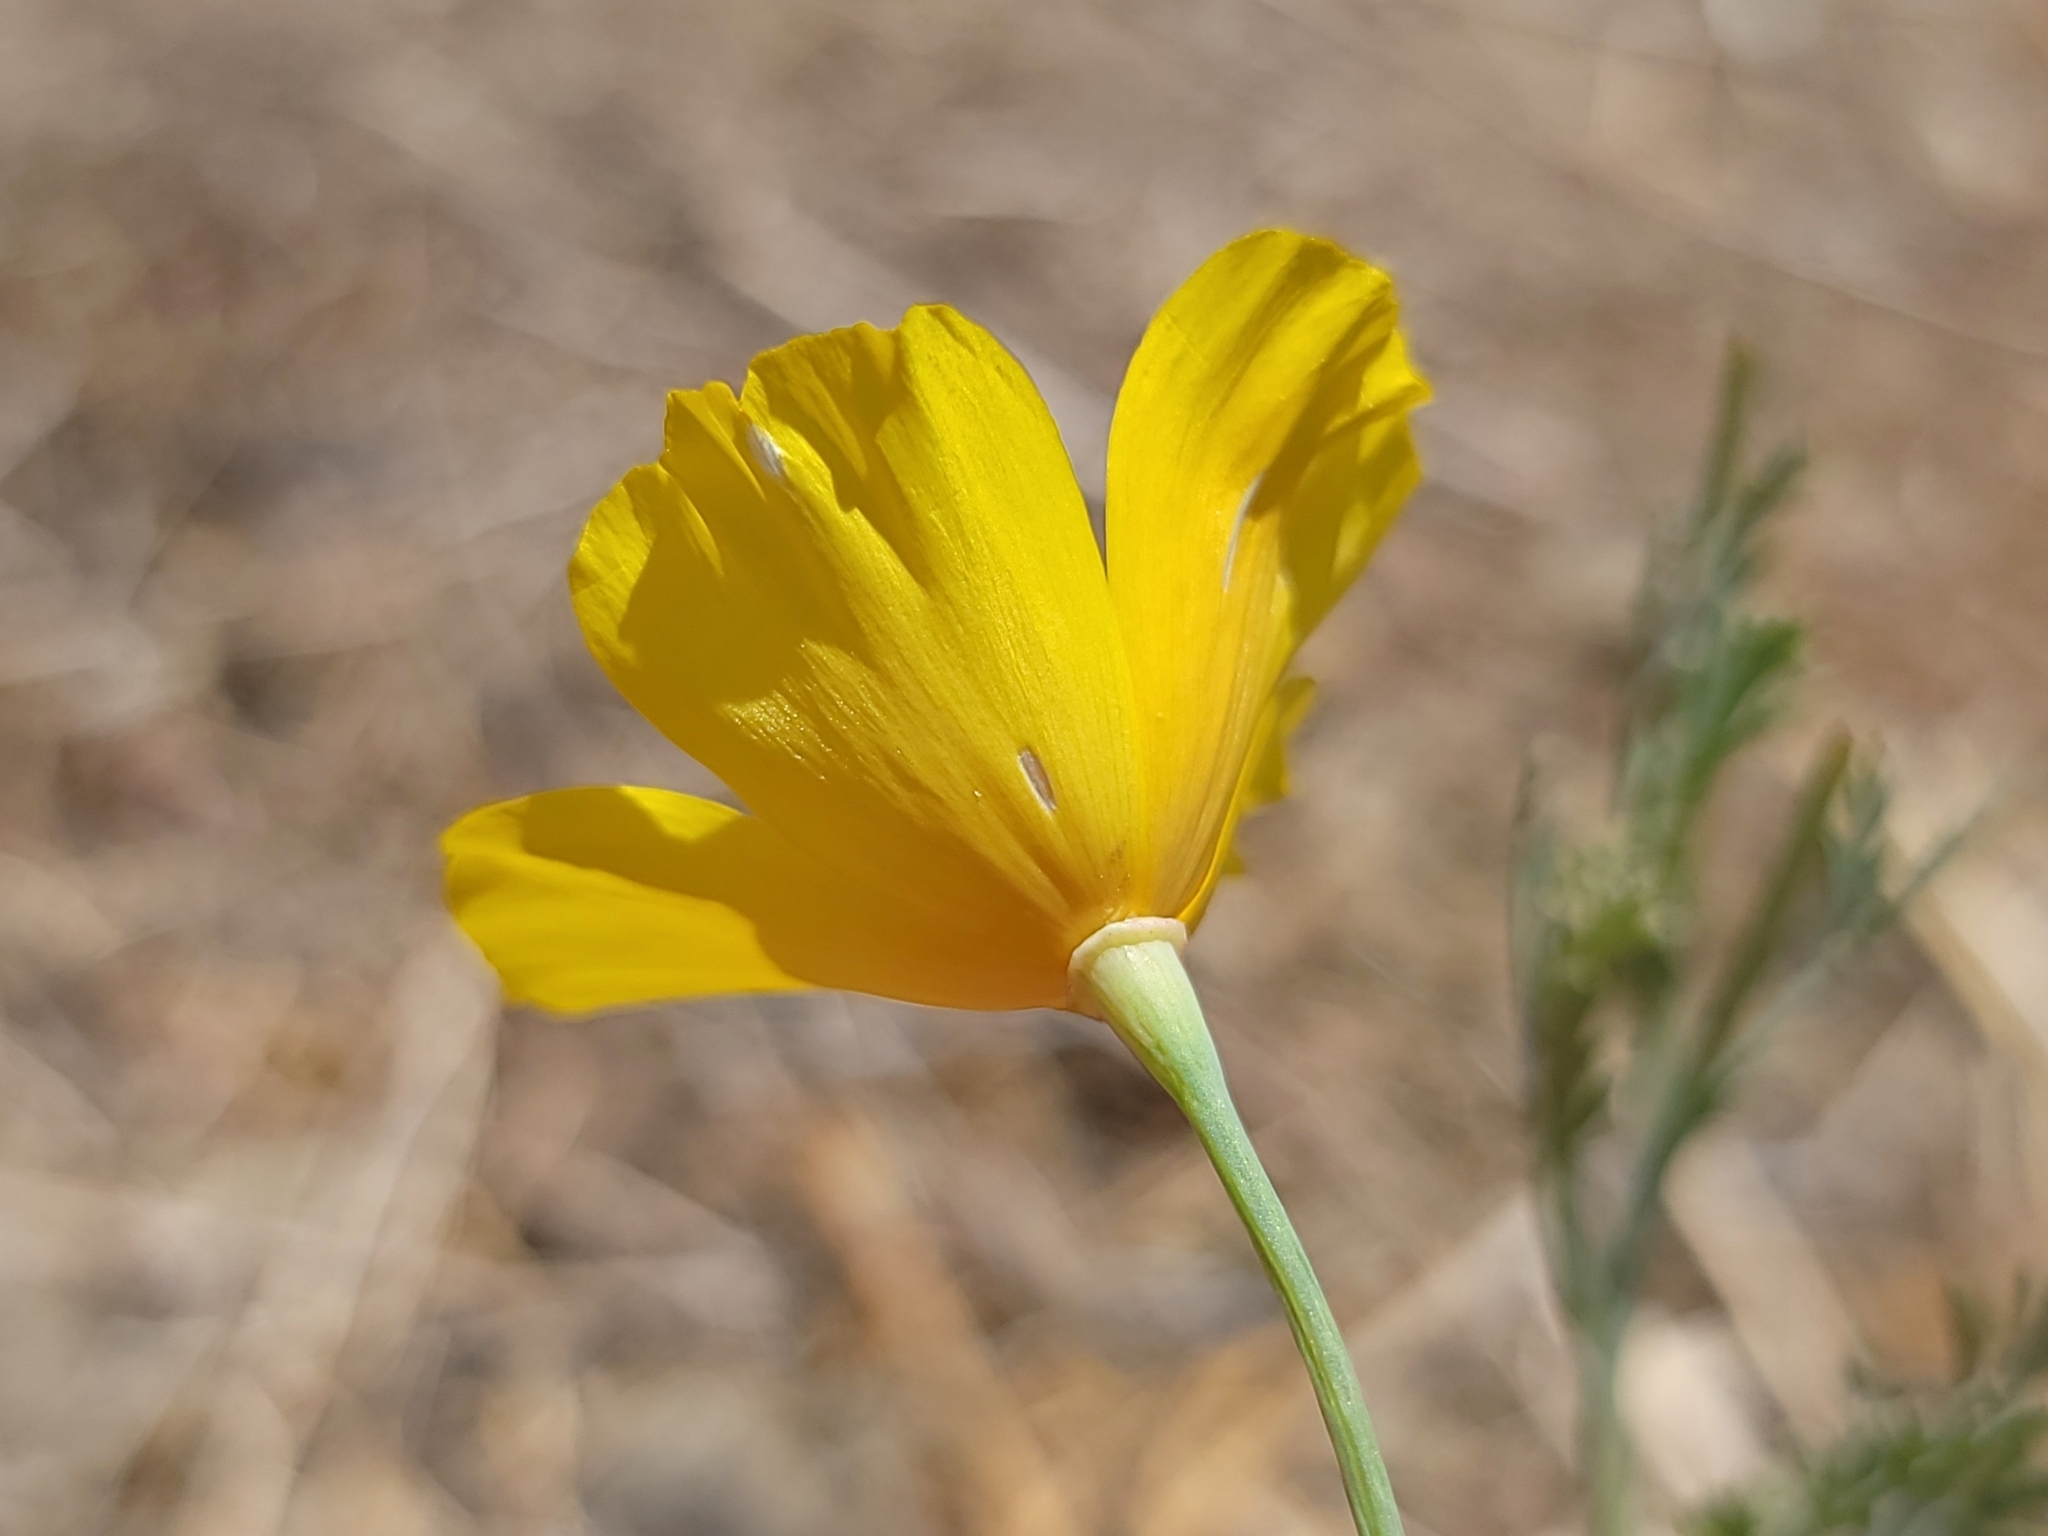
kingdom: Plantae
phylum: Tracheophyta
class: Magnoliopsida
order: Ranunculales
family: Papaveraceae
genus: Eschscholzia
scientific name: Eschscholzia californica
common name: California poppy
